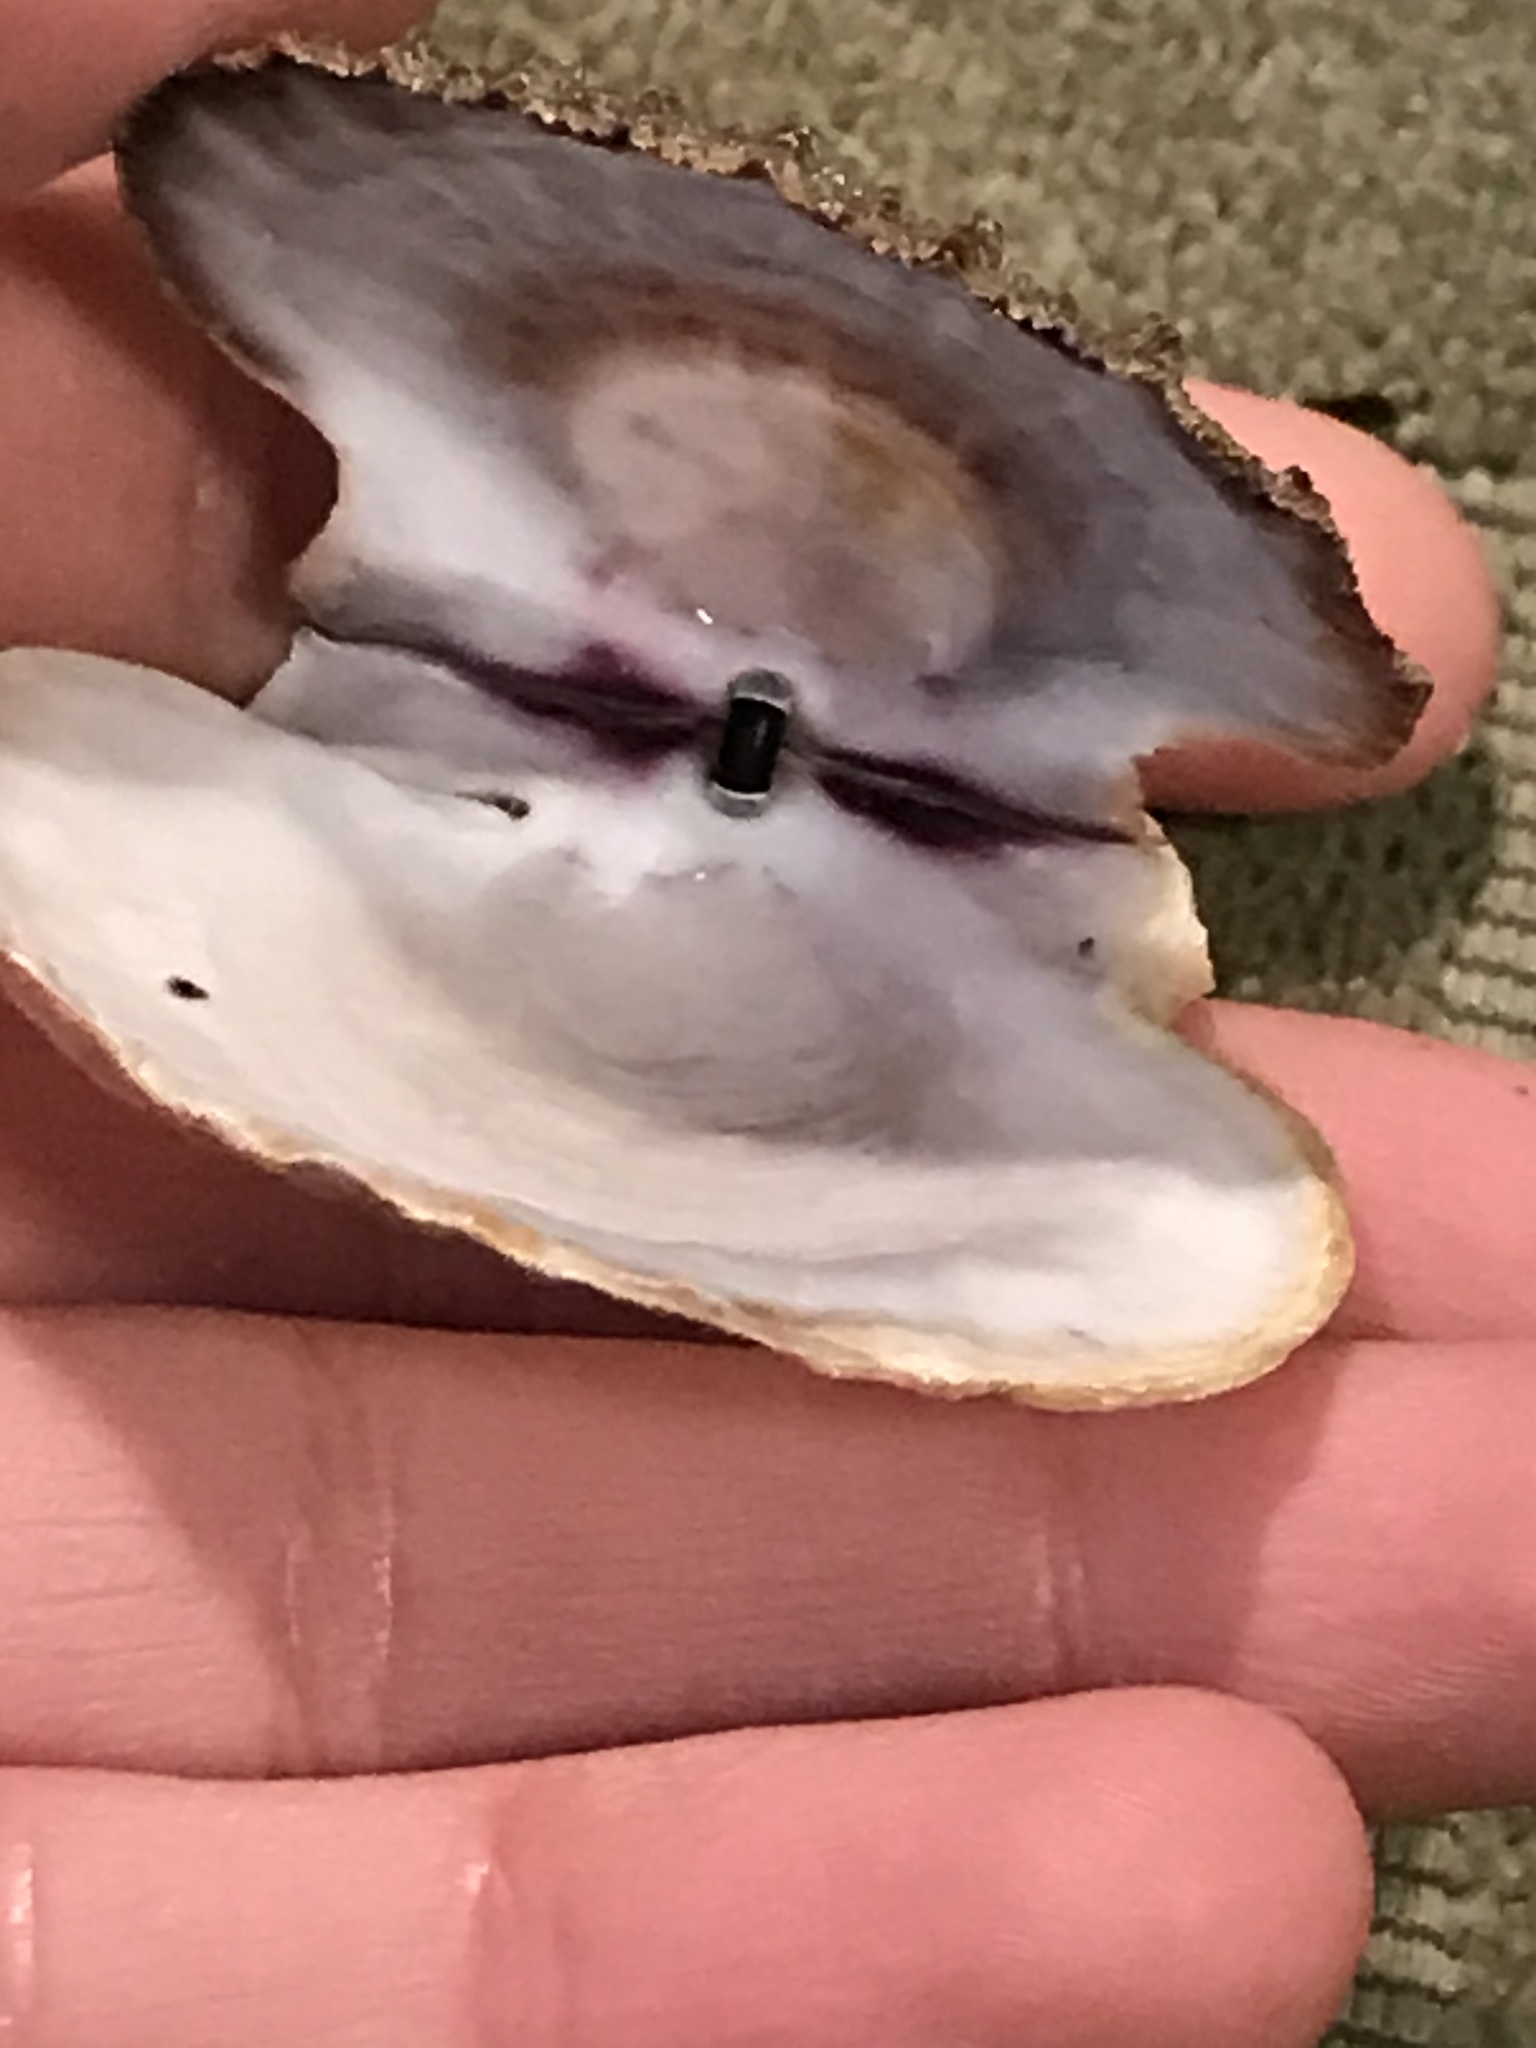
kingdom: Animalia
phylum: Mollusca
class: Bivalvia
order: Pectinida
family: Pectinidae
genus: Crassadoma
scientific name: Crassadoma gigantea
